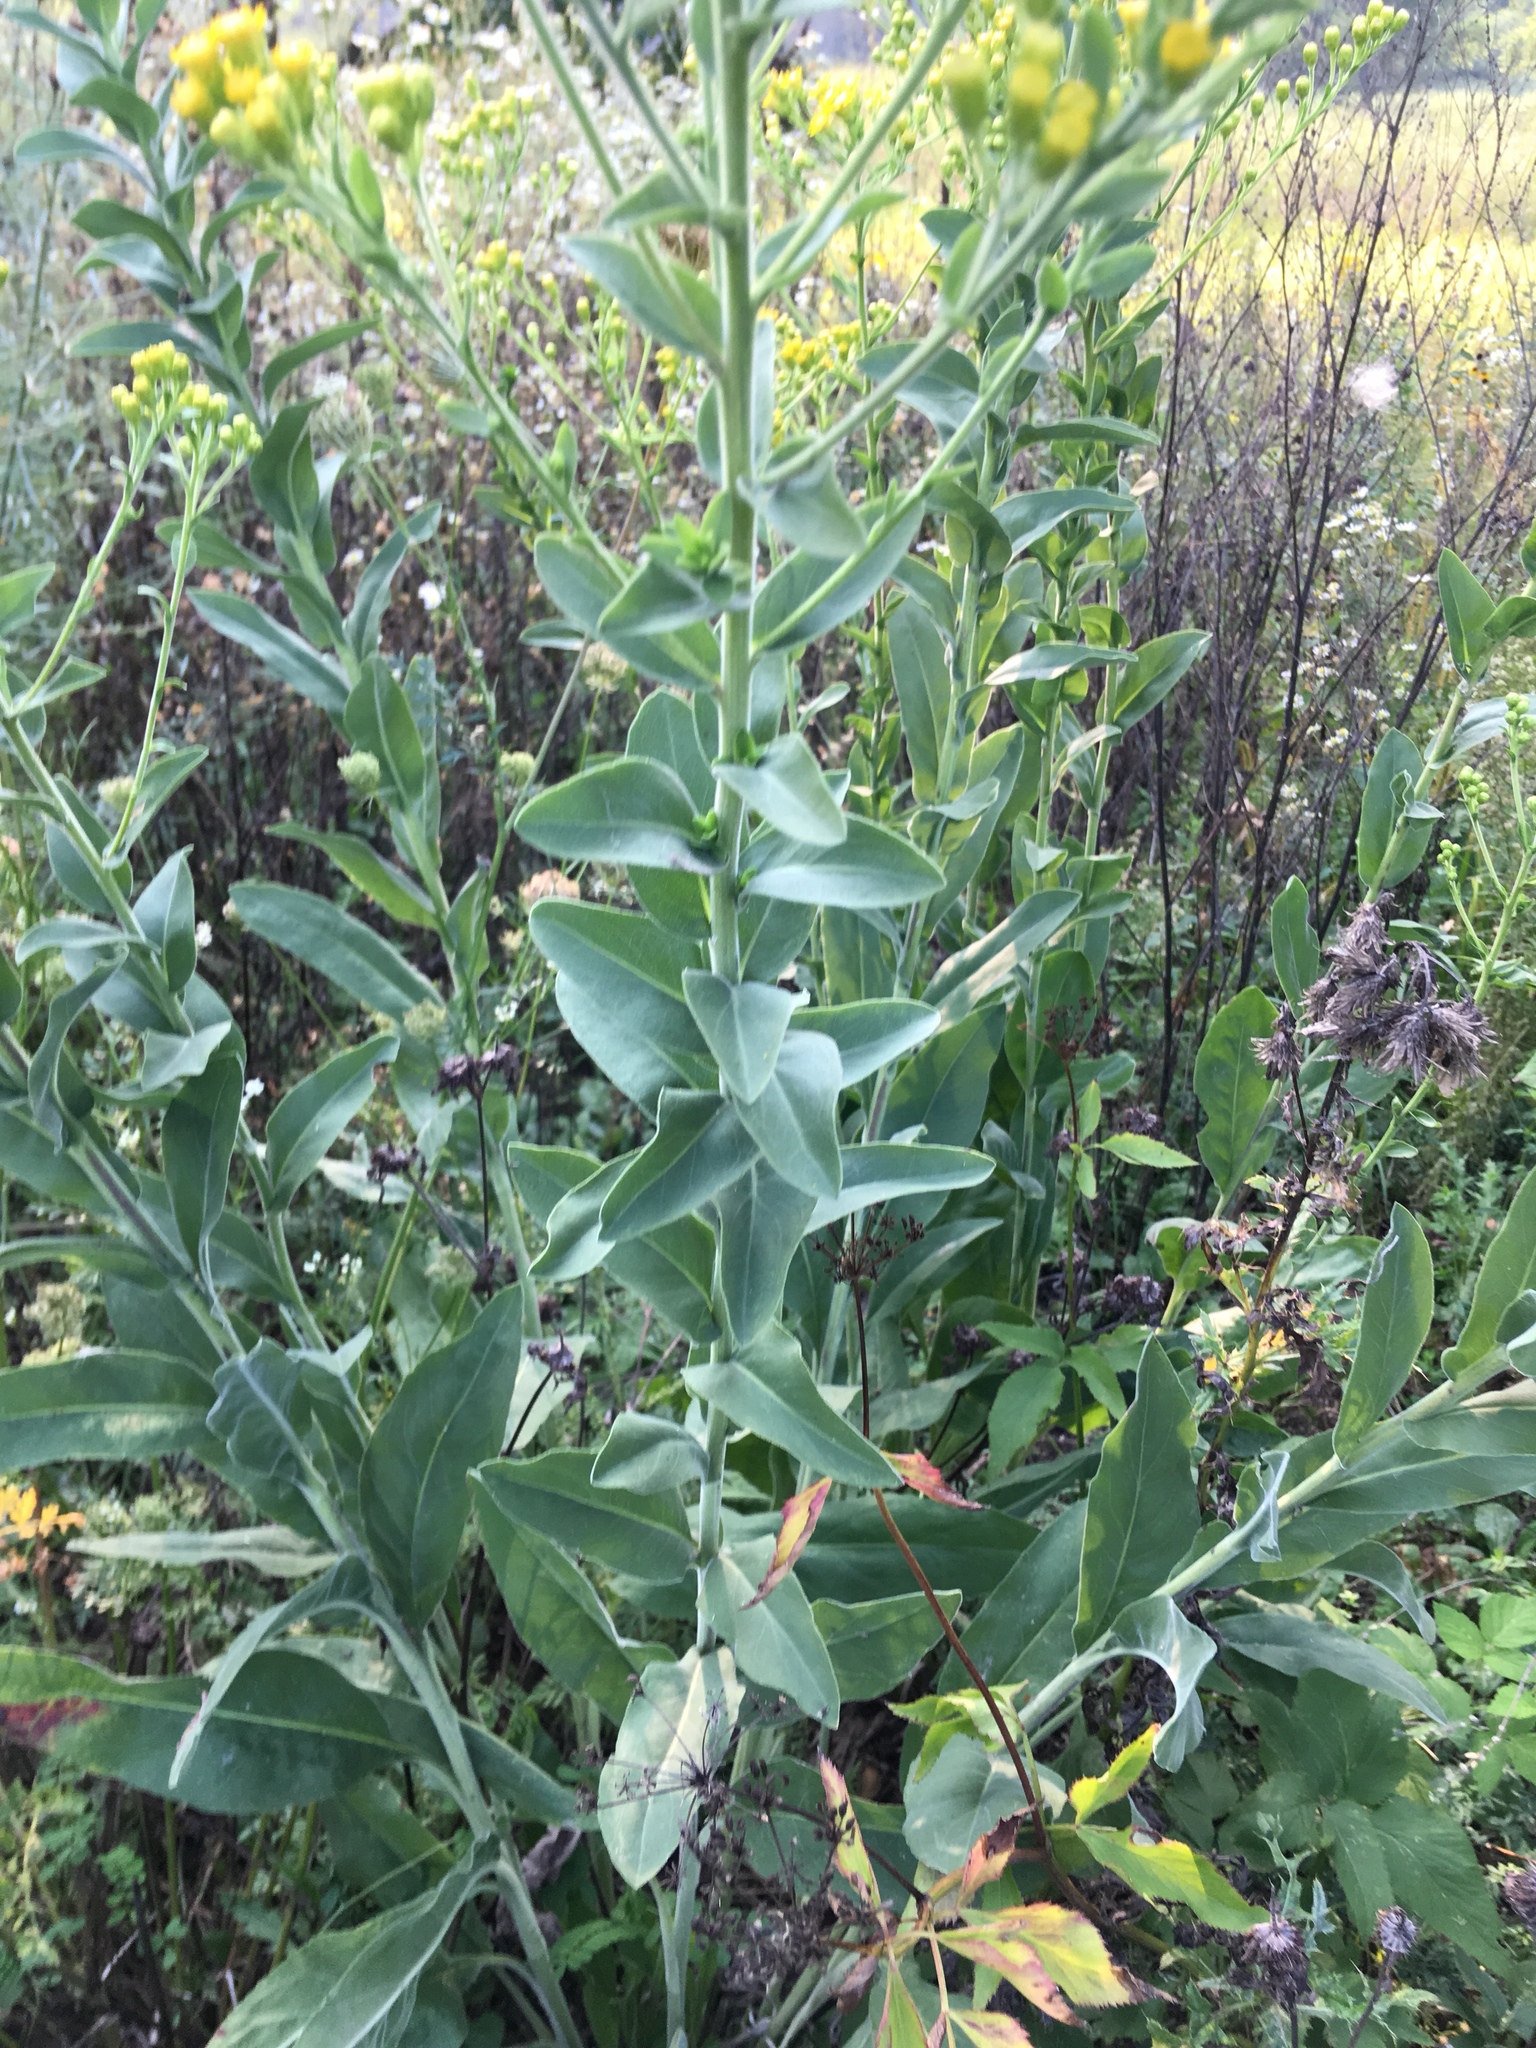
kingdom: Plantae
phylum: Tracheophyta
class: Magnoliopsida
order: Asterales
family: Asteraceae
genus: Solidago
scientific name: Solidago rigida
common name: Rigid goldenrod
